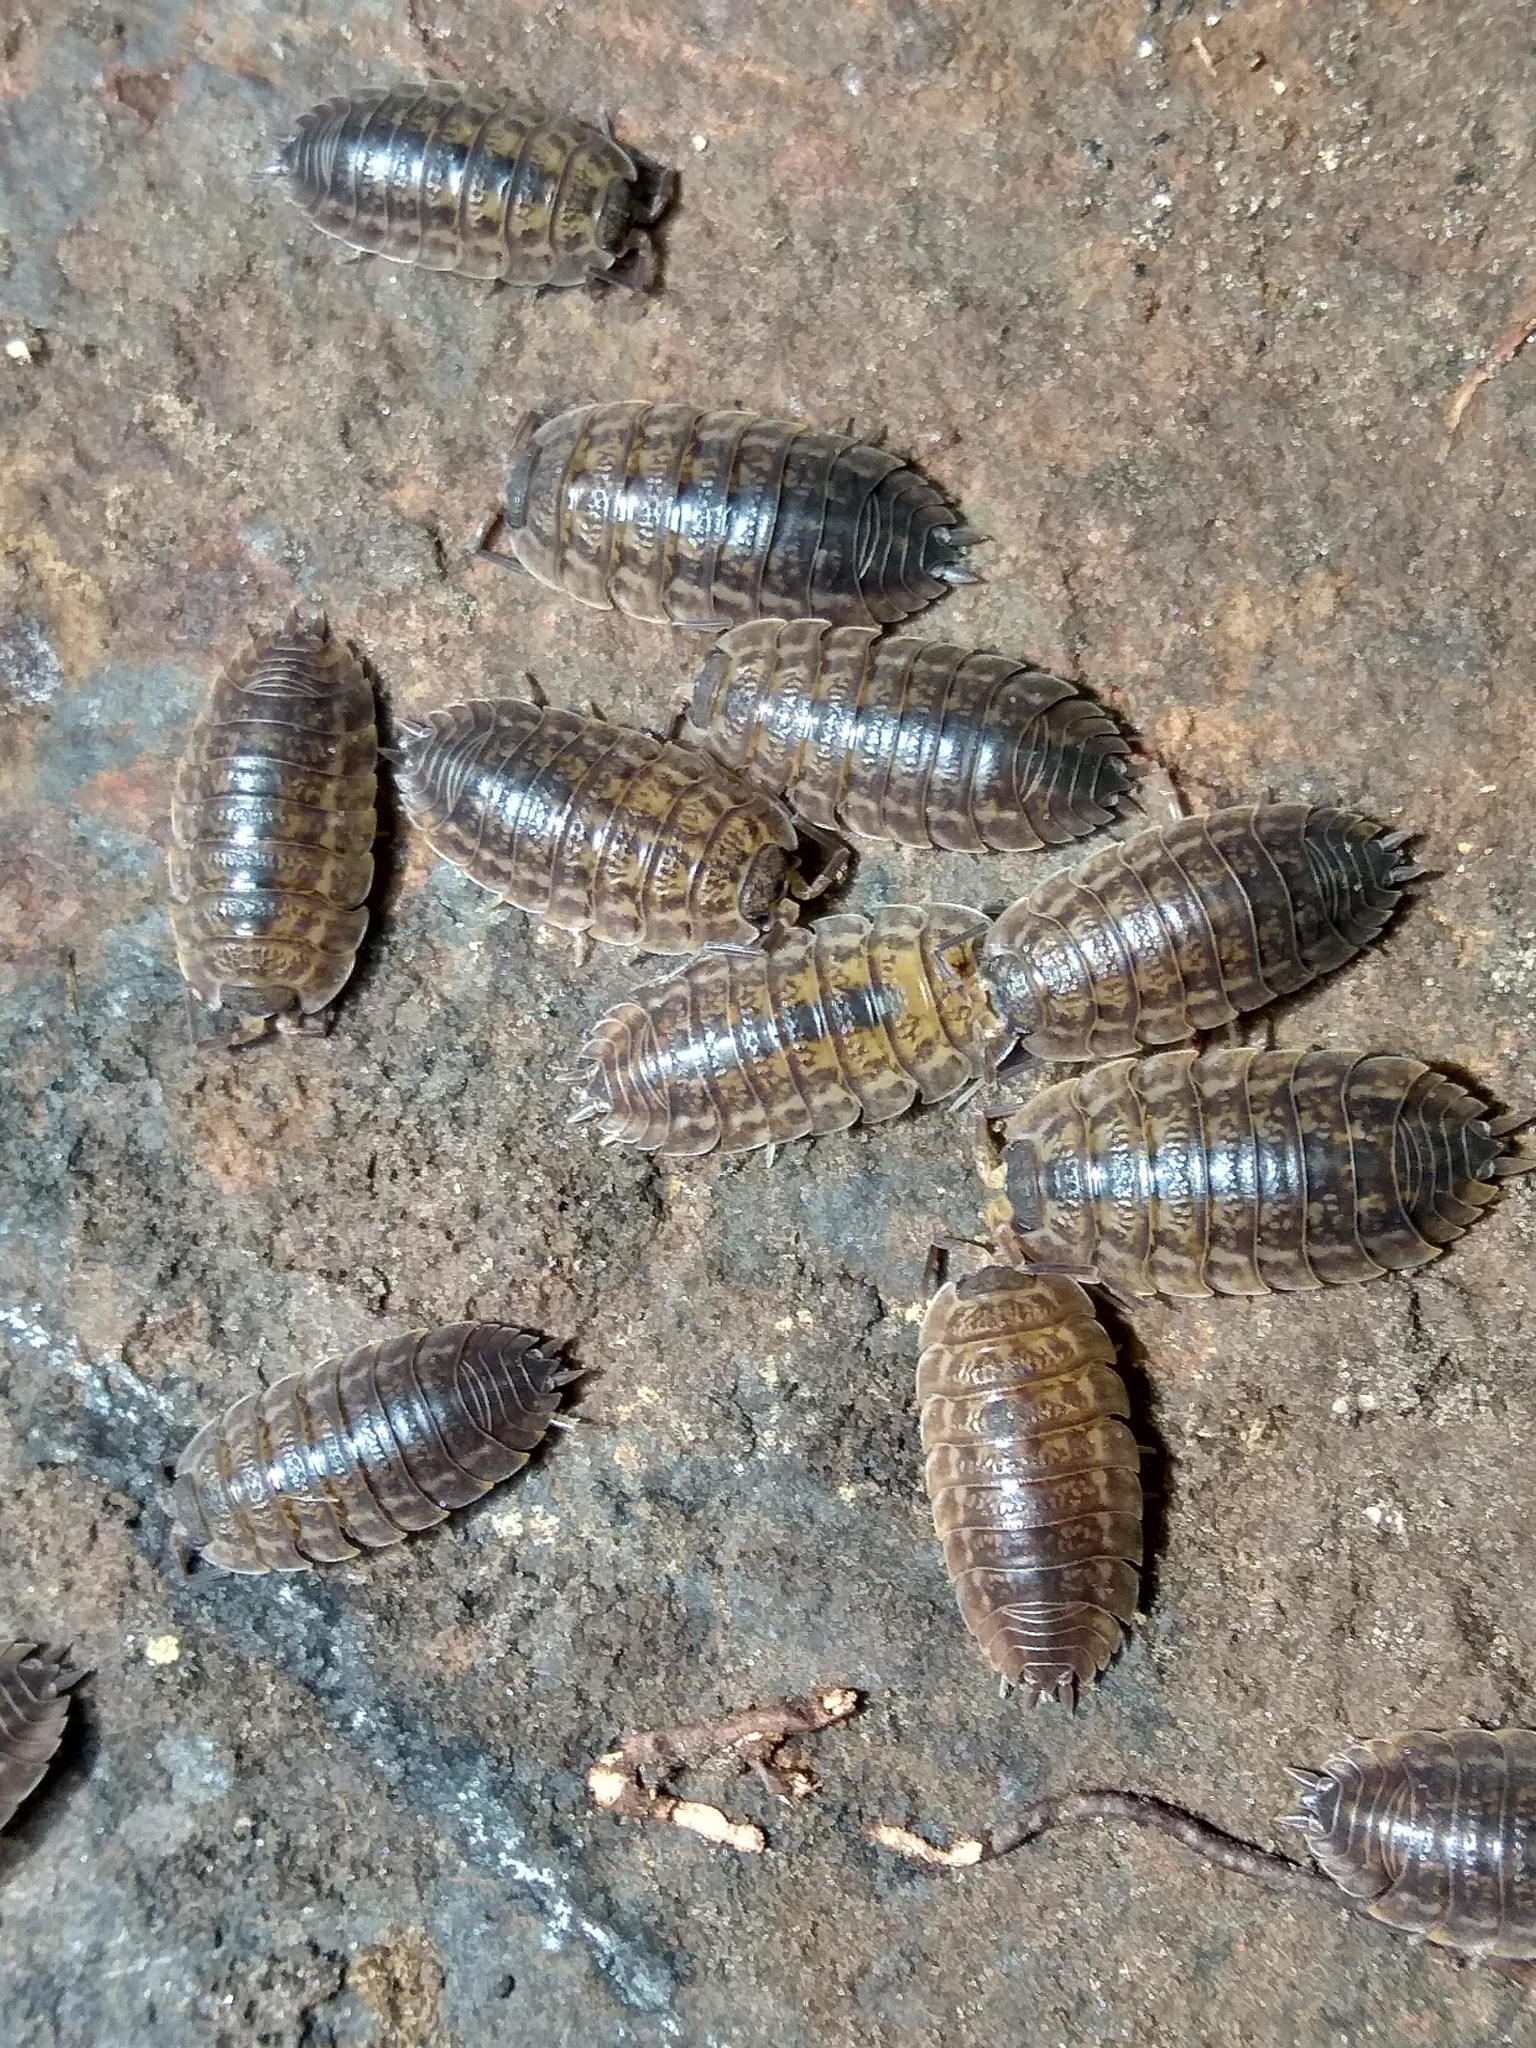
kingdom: Animalia
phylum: Arthropoda
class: Malacostraca
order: Isopoda
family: Trachelipodidae
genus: Trachelipus
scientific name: Trachelipus rathkii
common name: Isopod
